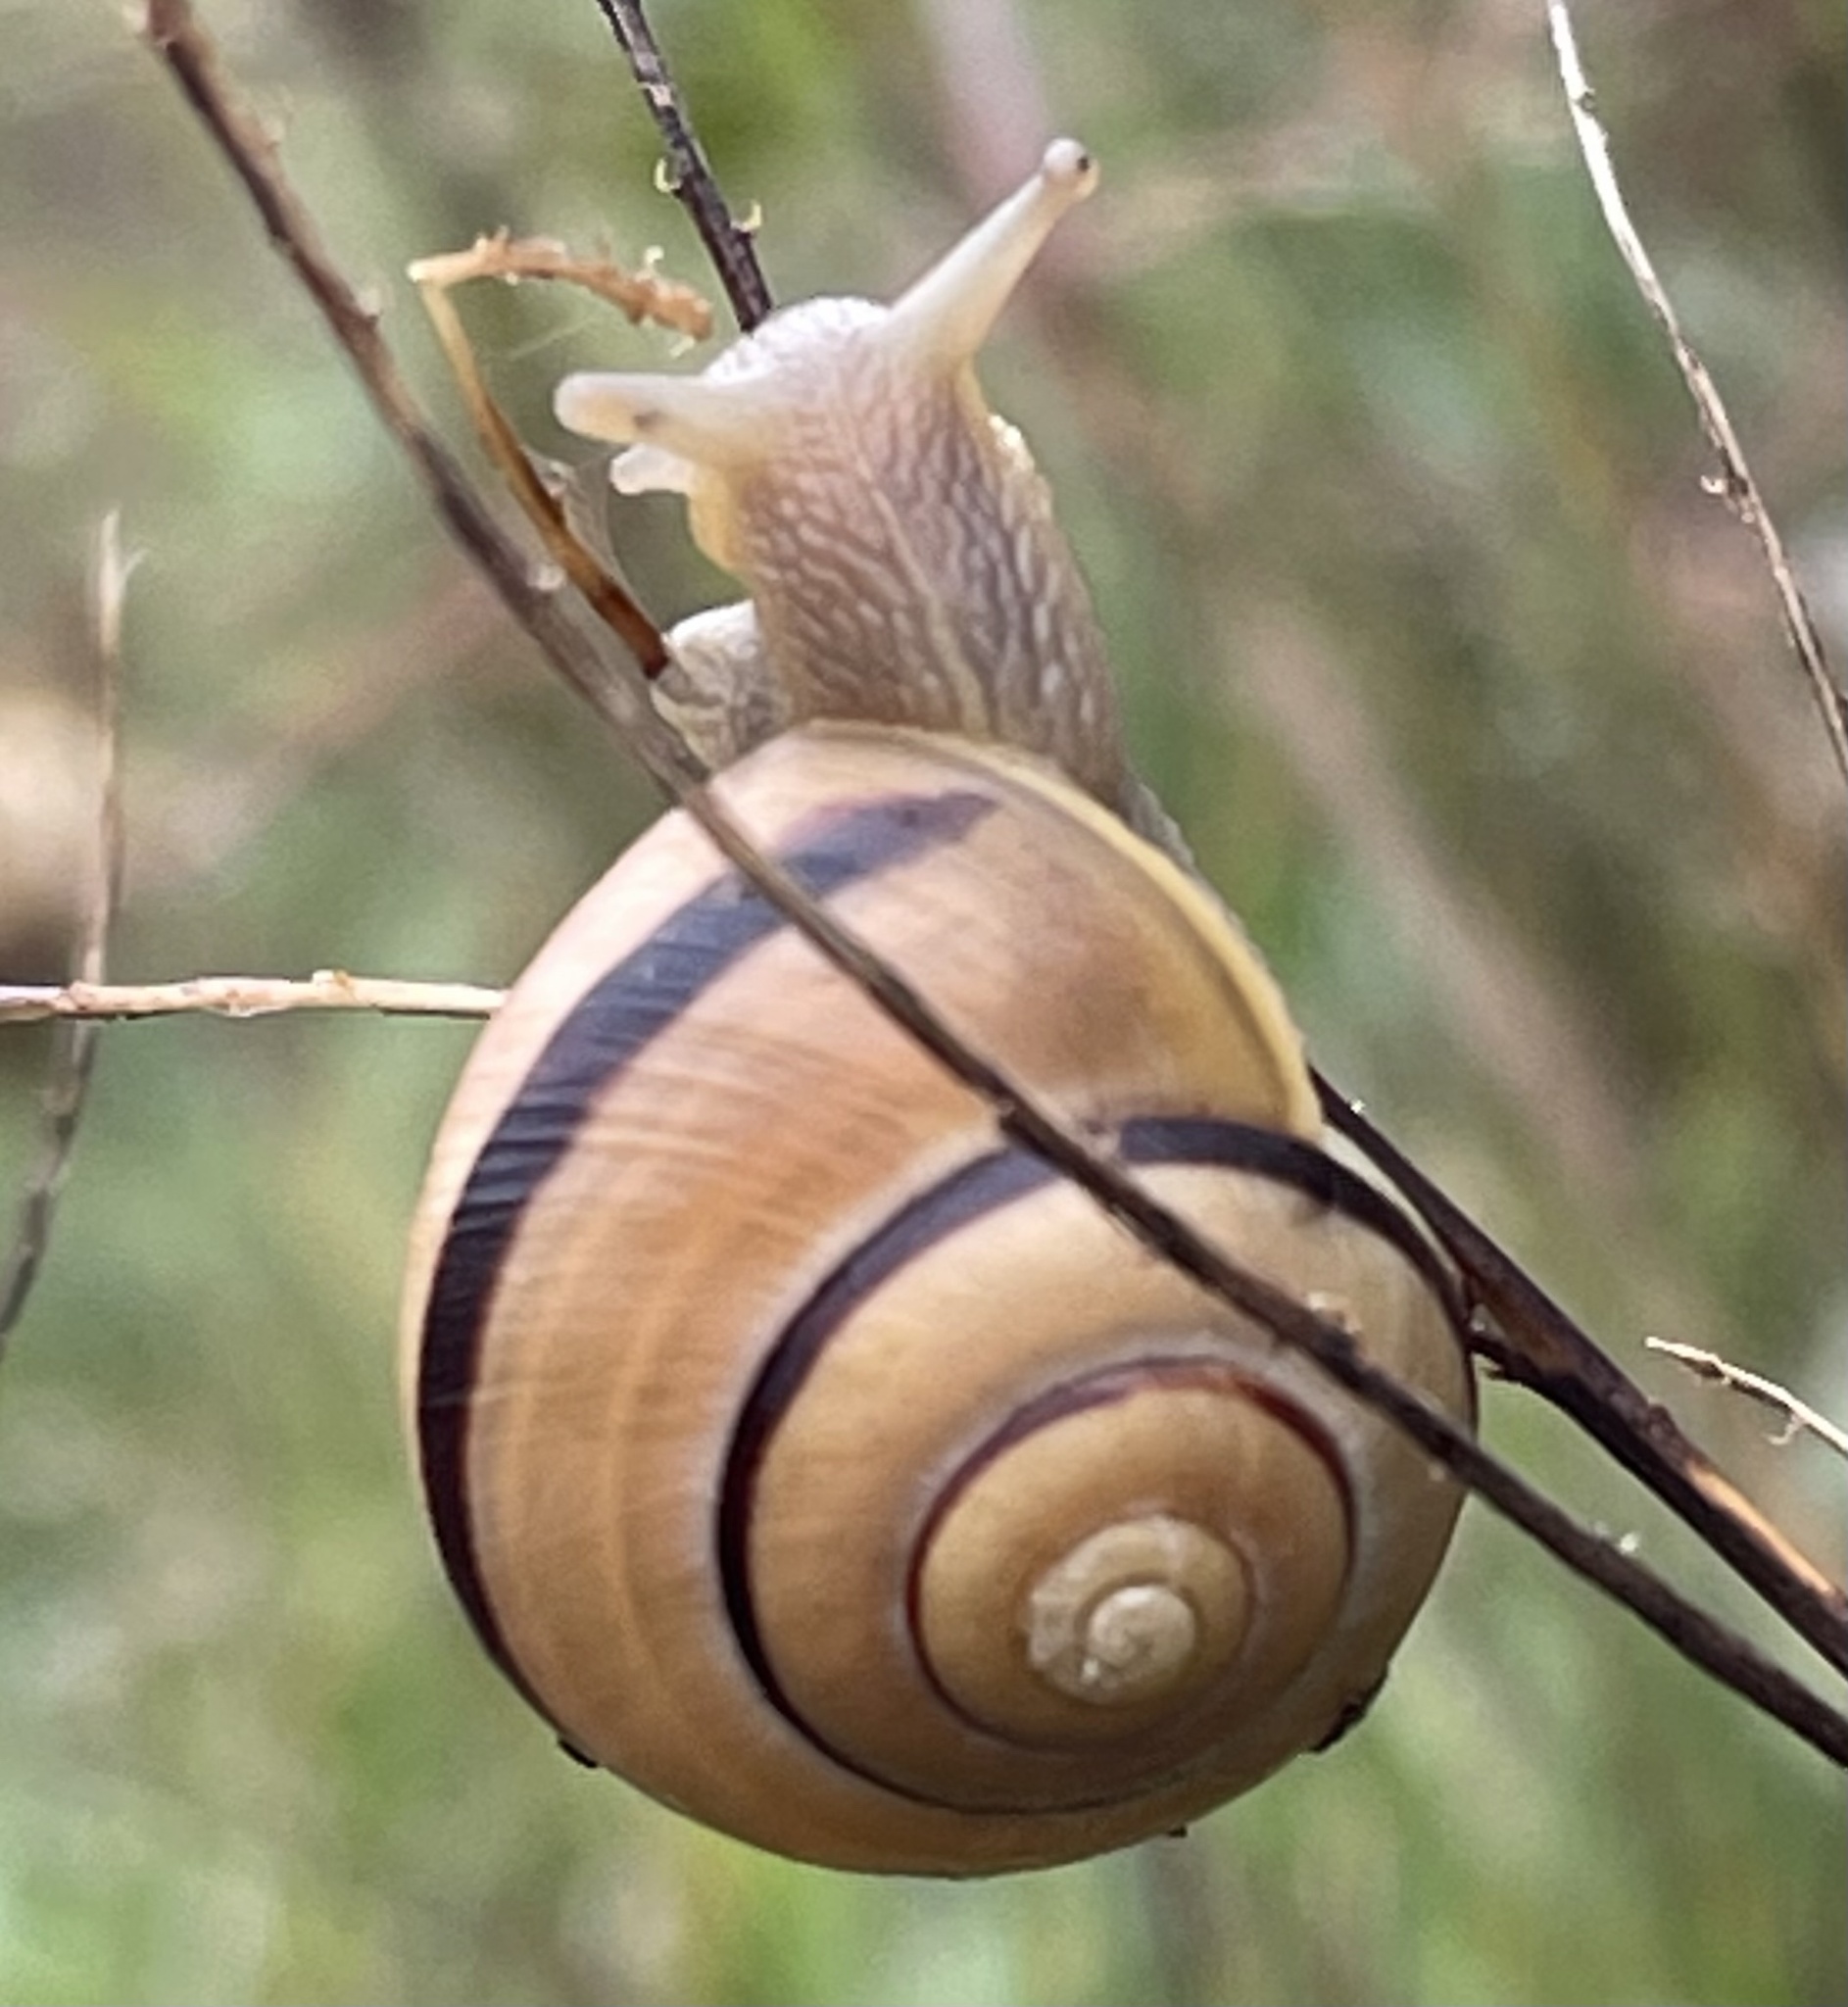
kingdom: Animalia
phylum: Mollusca
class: Gastropoda
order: Stylommatophora
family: Helicidae
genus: Cepaea
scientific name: Cepaea nemoralis
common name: Grovesnail
